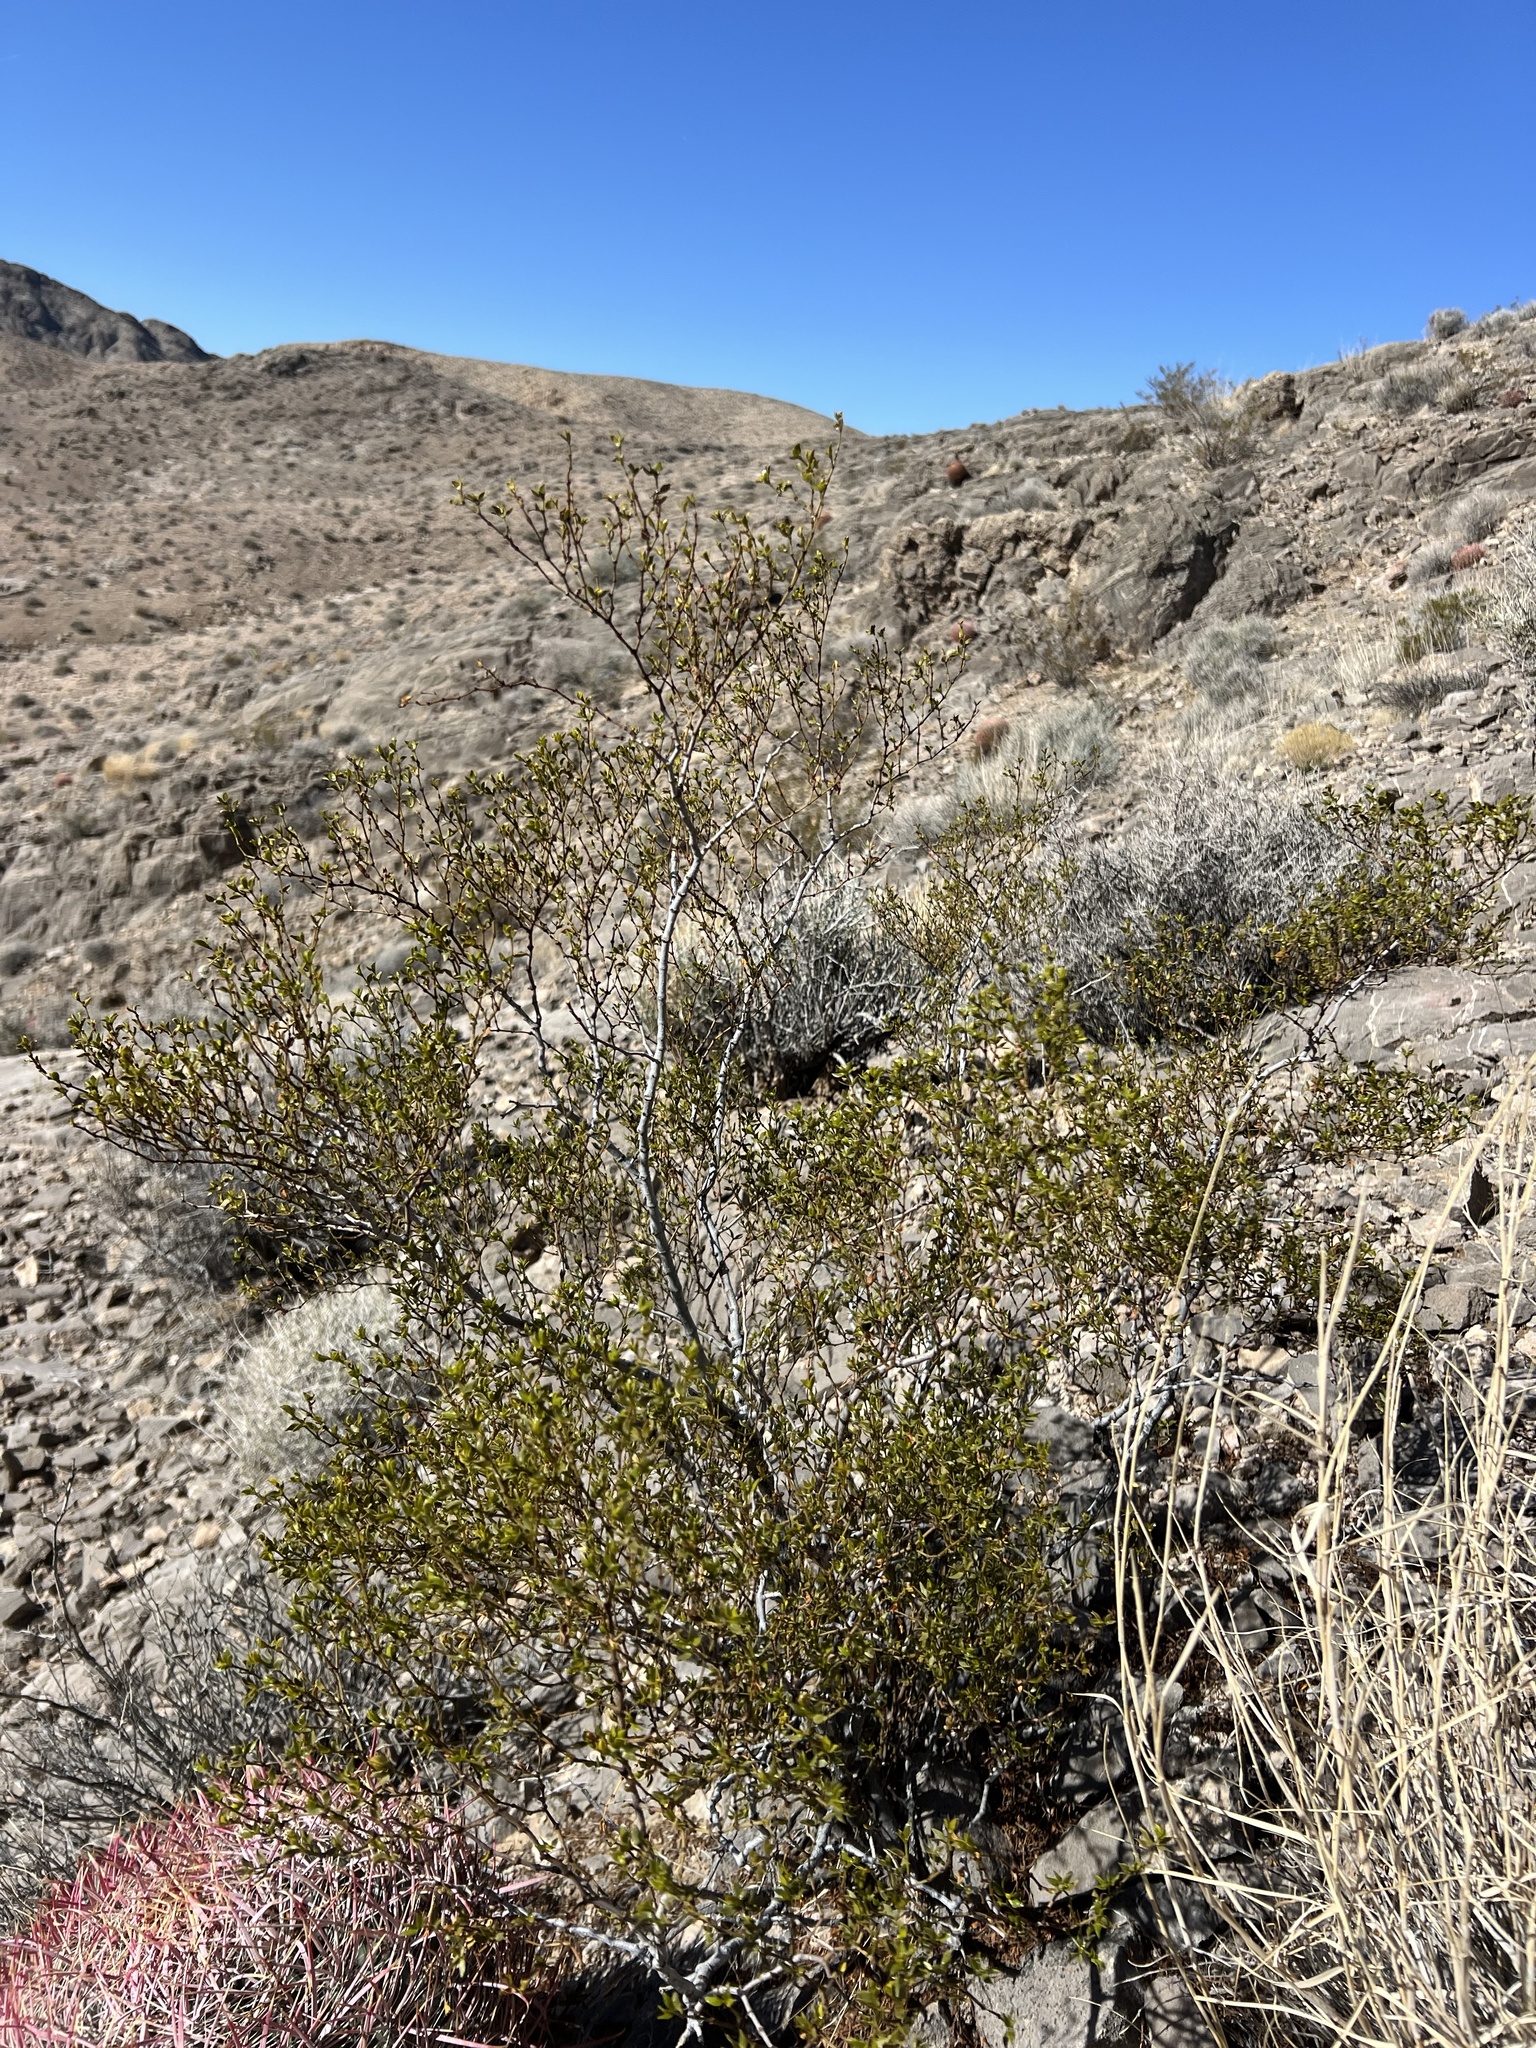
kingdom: Plantae
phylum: Tracheophyta
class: Magnoliopsida
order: Zygophyllales
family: Zygophyllaceae
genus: Larrea
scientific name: Larrea tridentata
